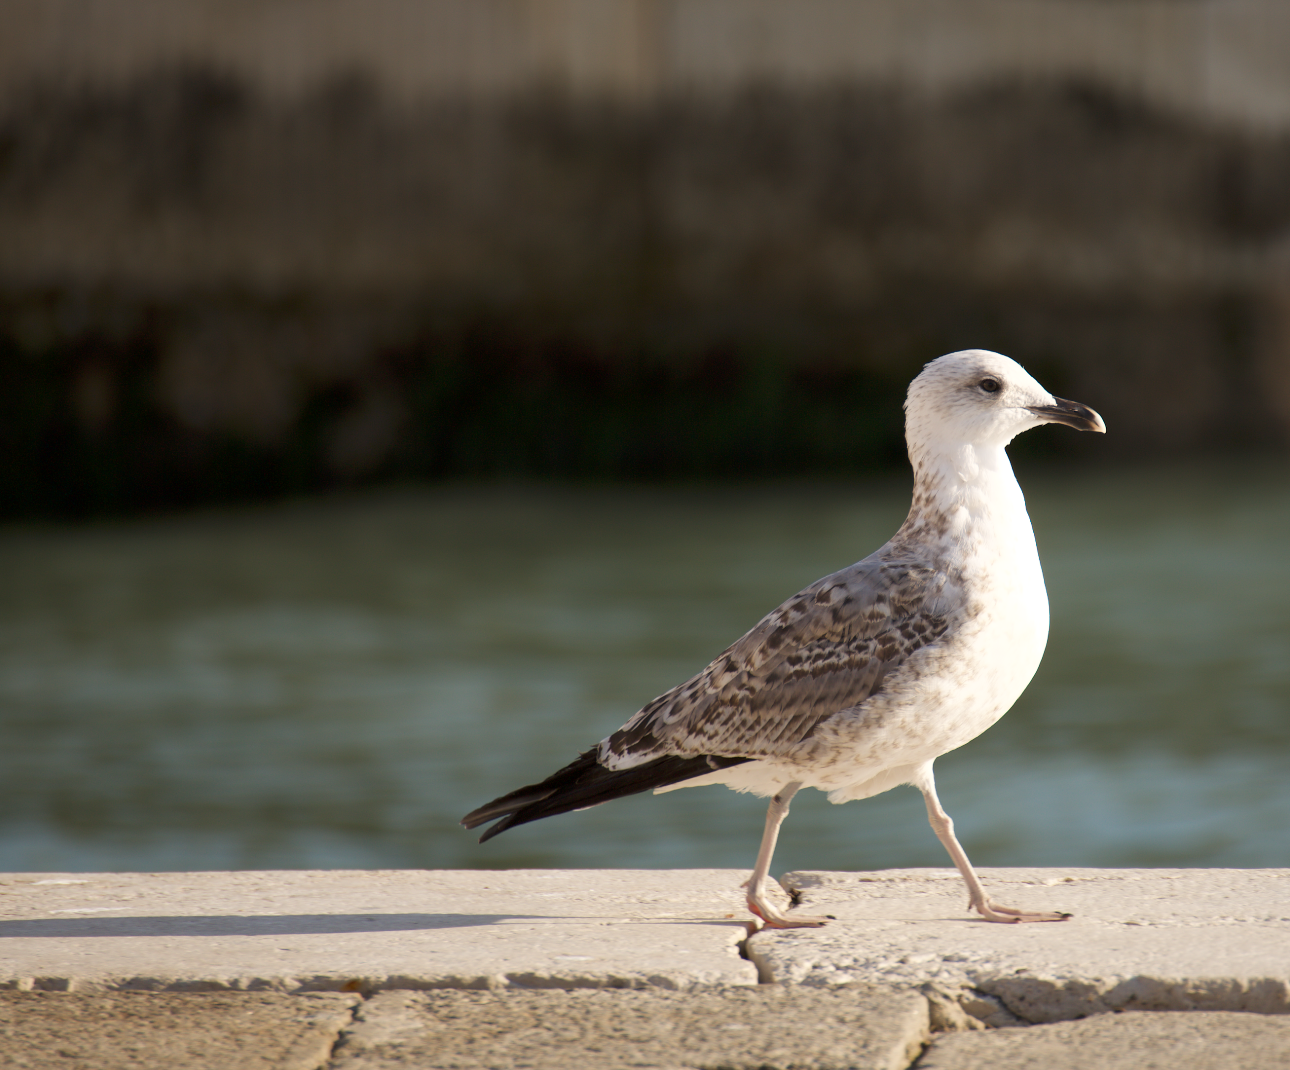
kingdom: Animalia
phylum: Chordata
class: Aves
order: Charadriiformes
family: Laridae
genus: Larus
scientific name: Larus michahellis
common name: Yellow-legged gull
